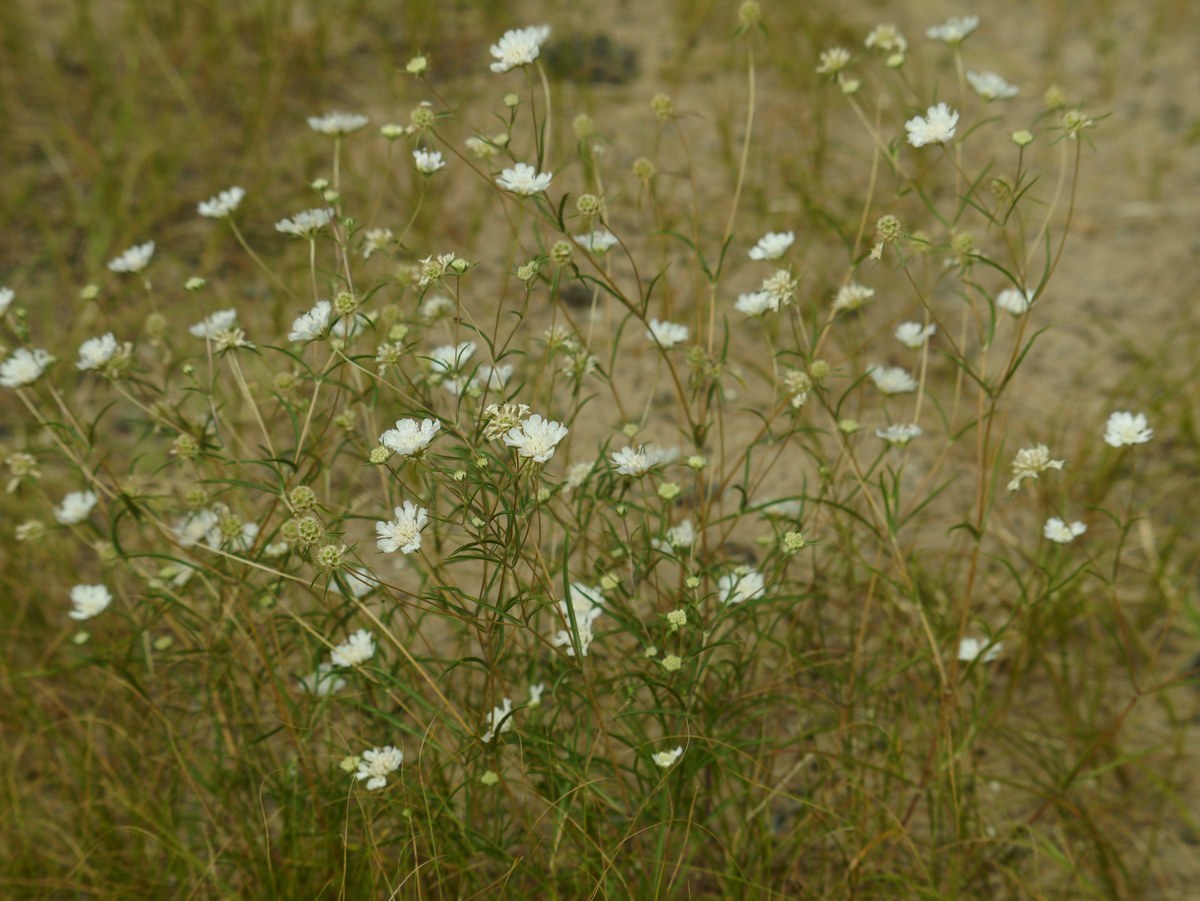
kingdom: Plantae
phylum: Tracheophyta
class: Magnoliopsida
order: Dipsacales
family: Caprifoliaceae
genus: Lomelosia
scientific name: Lomelosia argentea
